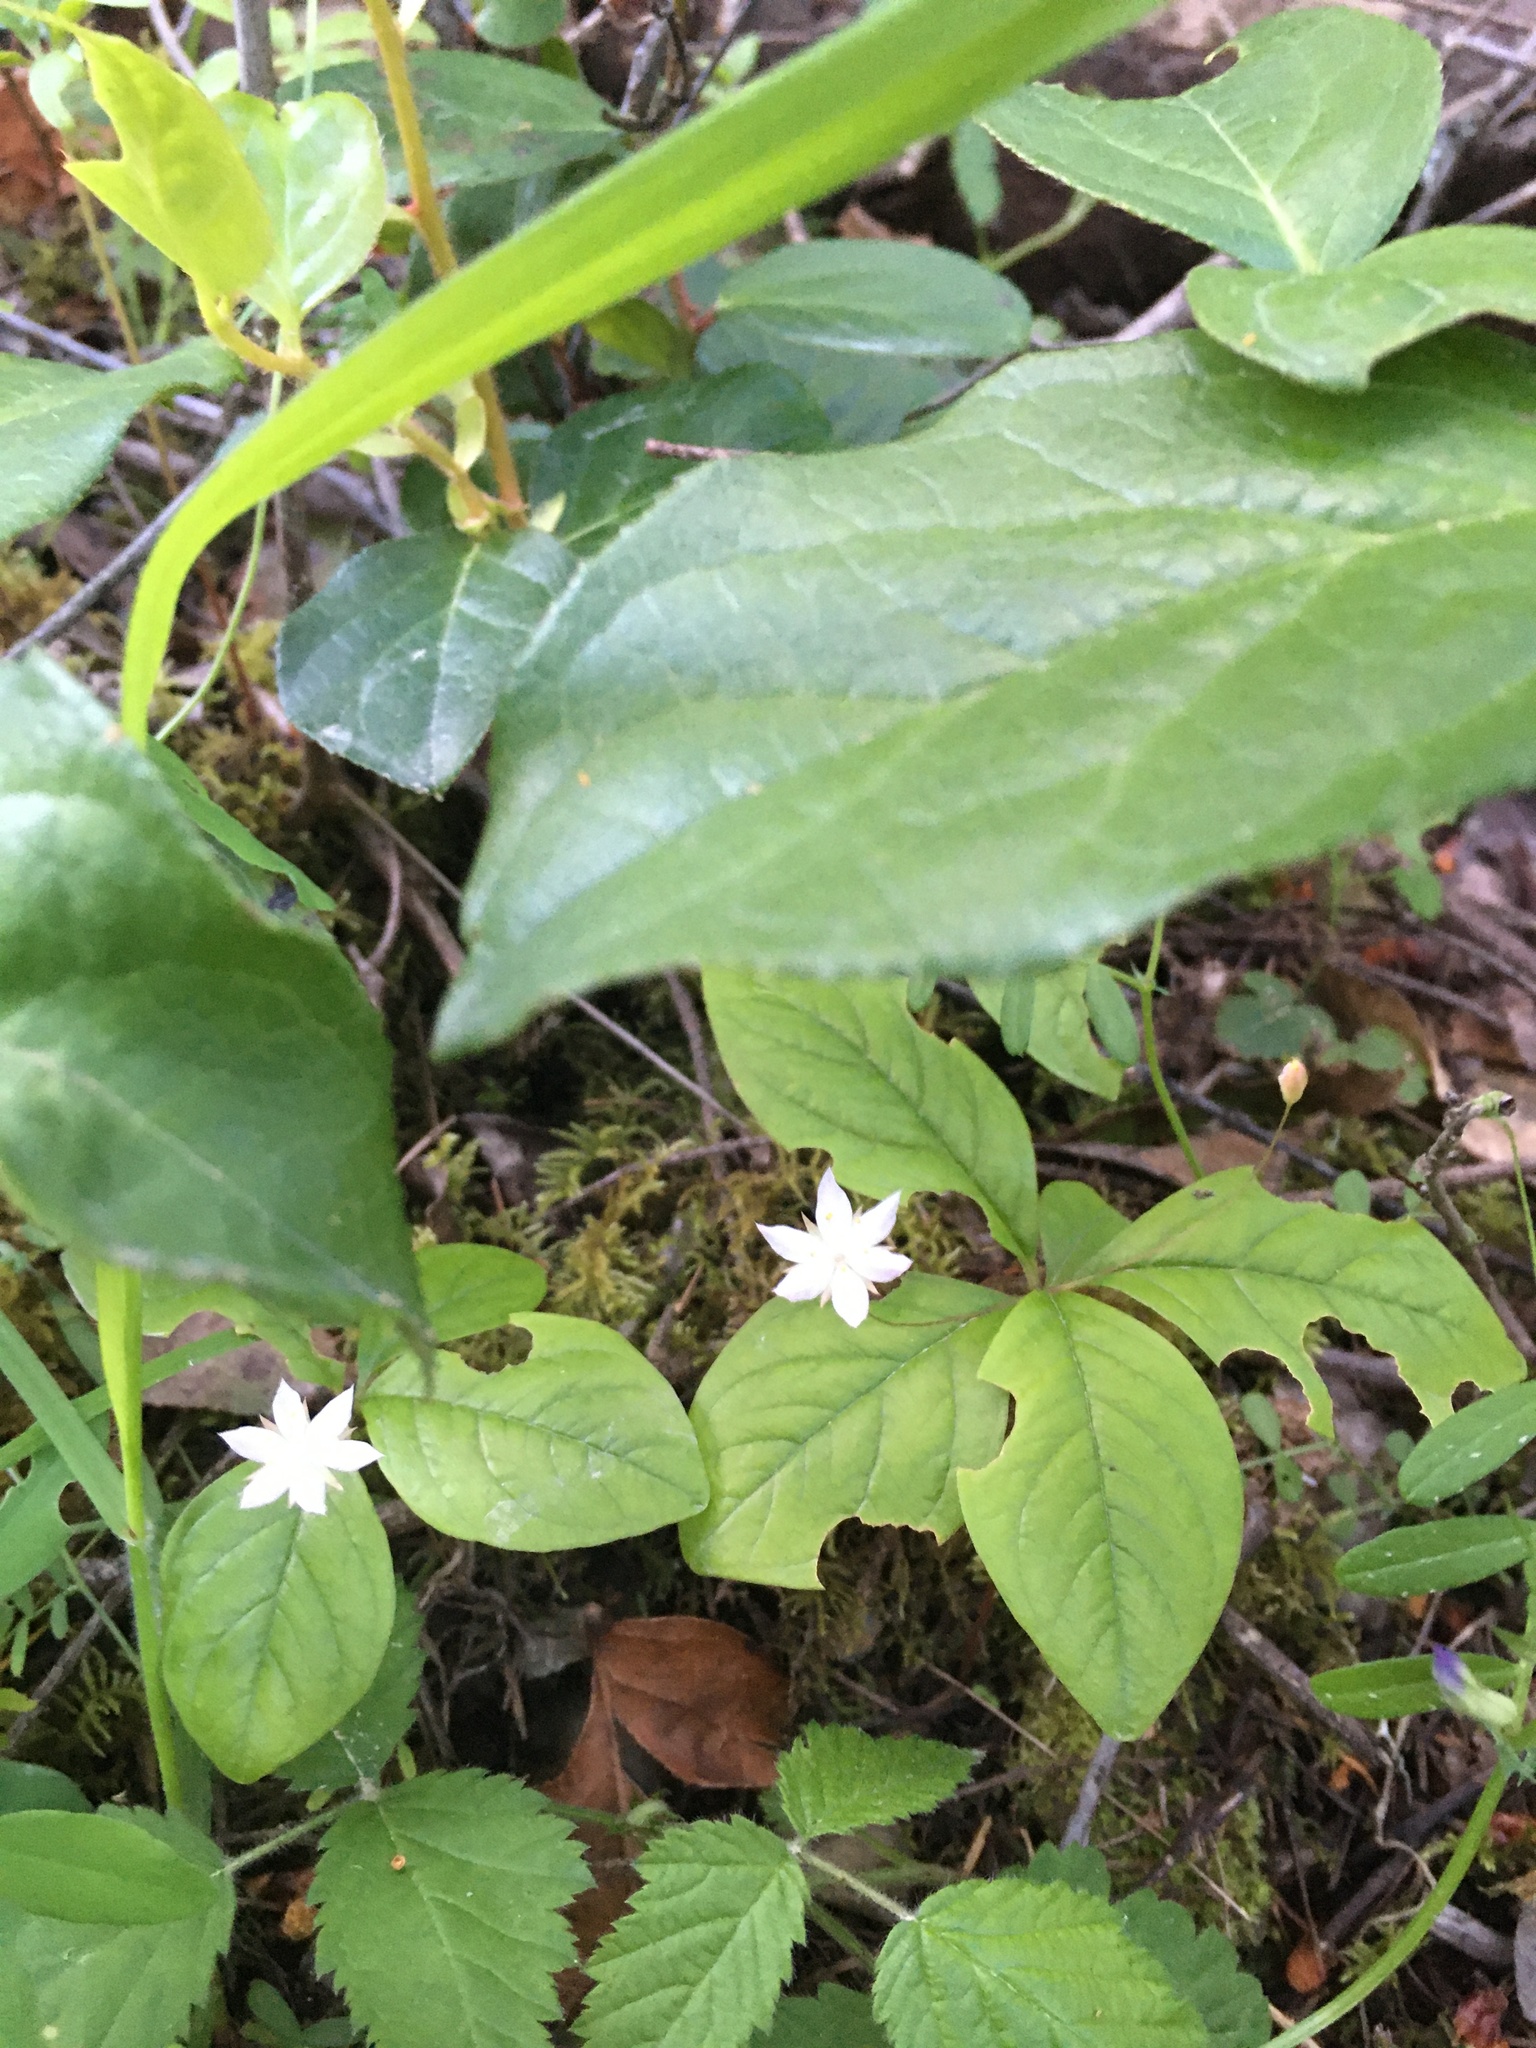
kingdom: Plantae
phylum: Tracheophyta
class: Magnoliopsida
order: Ericales
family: Primulaceae
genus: Lysimachia
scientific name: Lysimachia latifolia
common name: Pacific starflower
